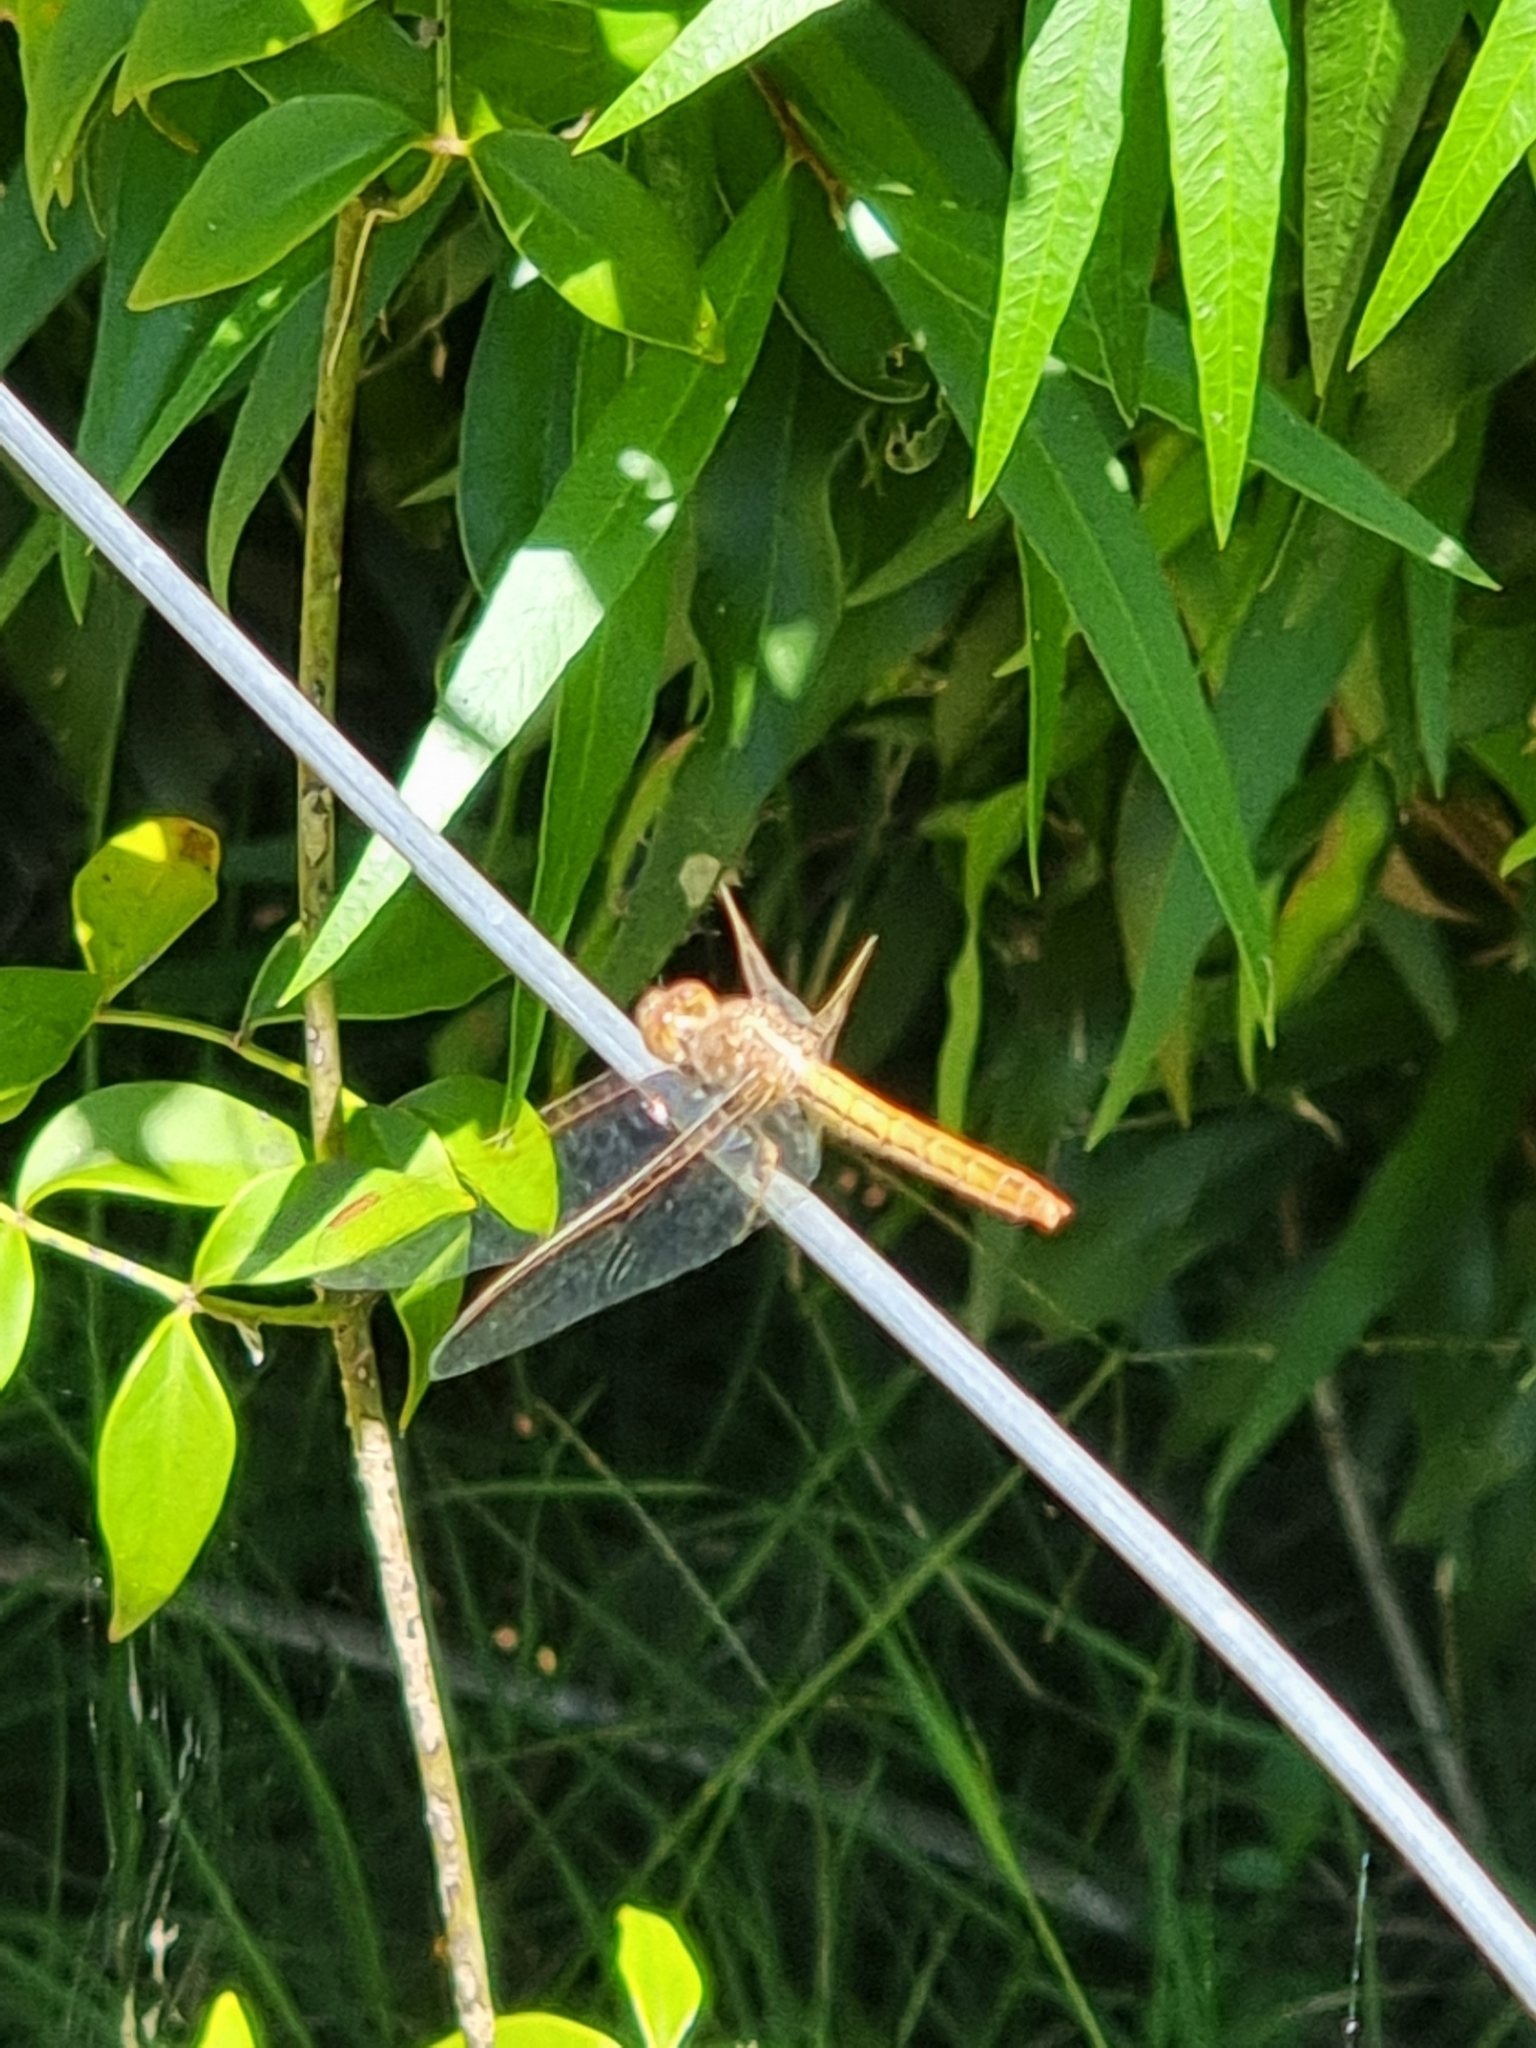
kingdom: Animalia
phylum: Arthropoda
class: Insecta
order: Odonata
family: Libellulidae
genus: Diplacodes
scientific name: Diplacodes haematodes
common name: Scarlet percher
